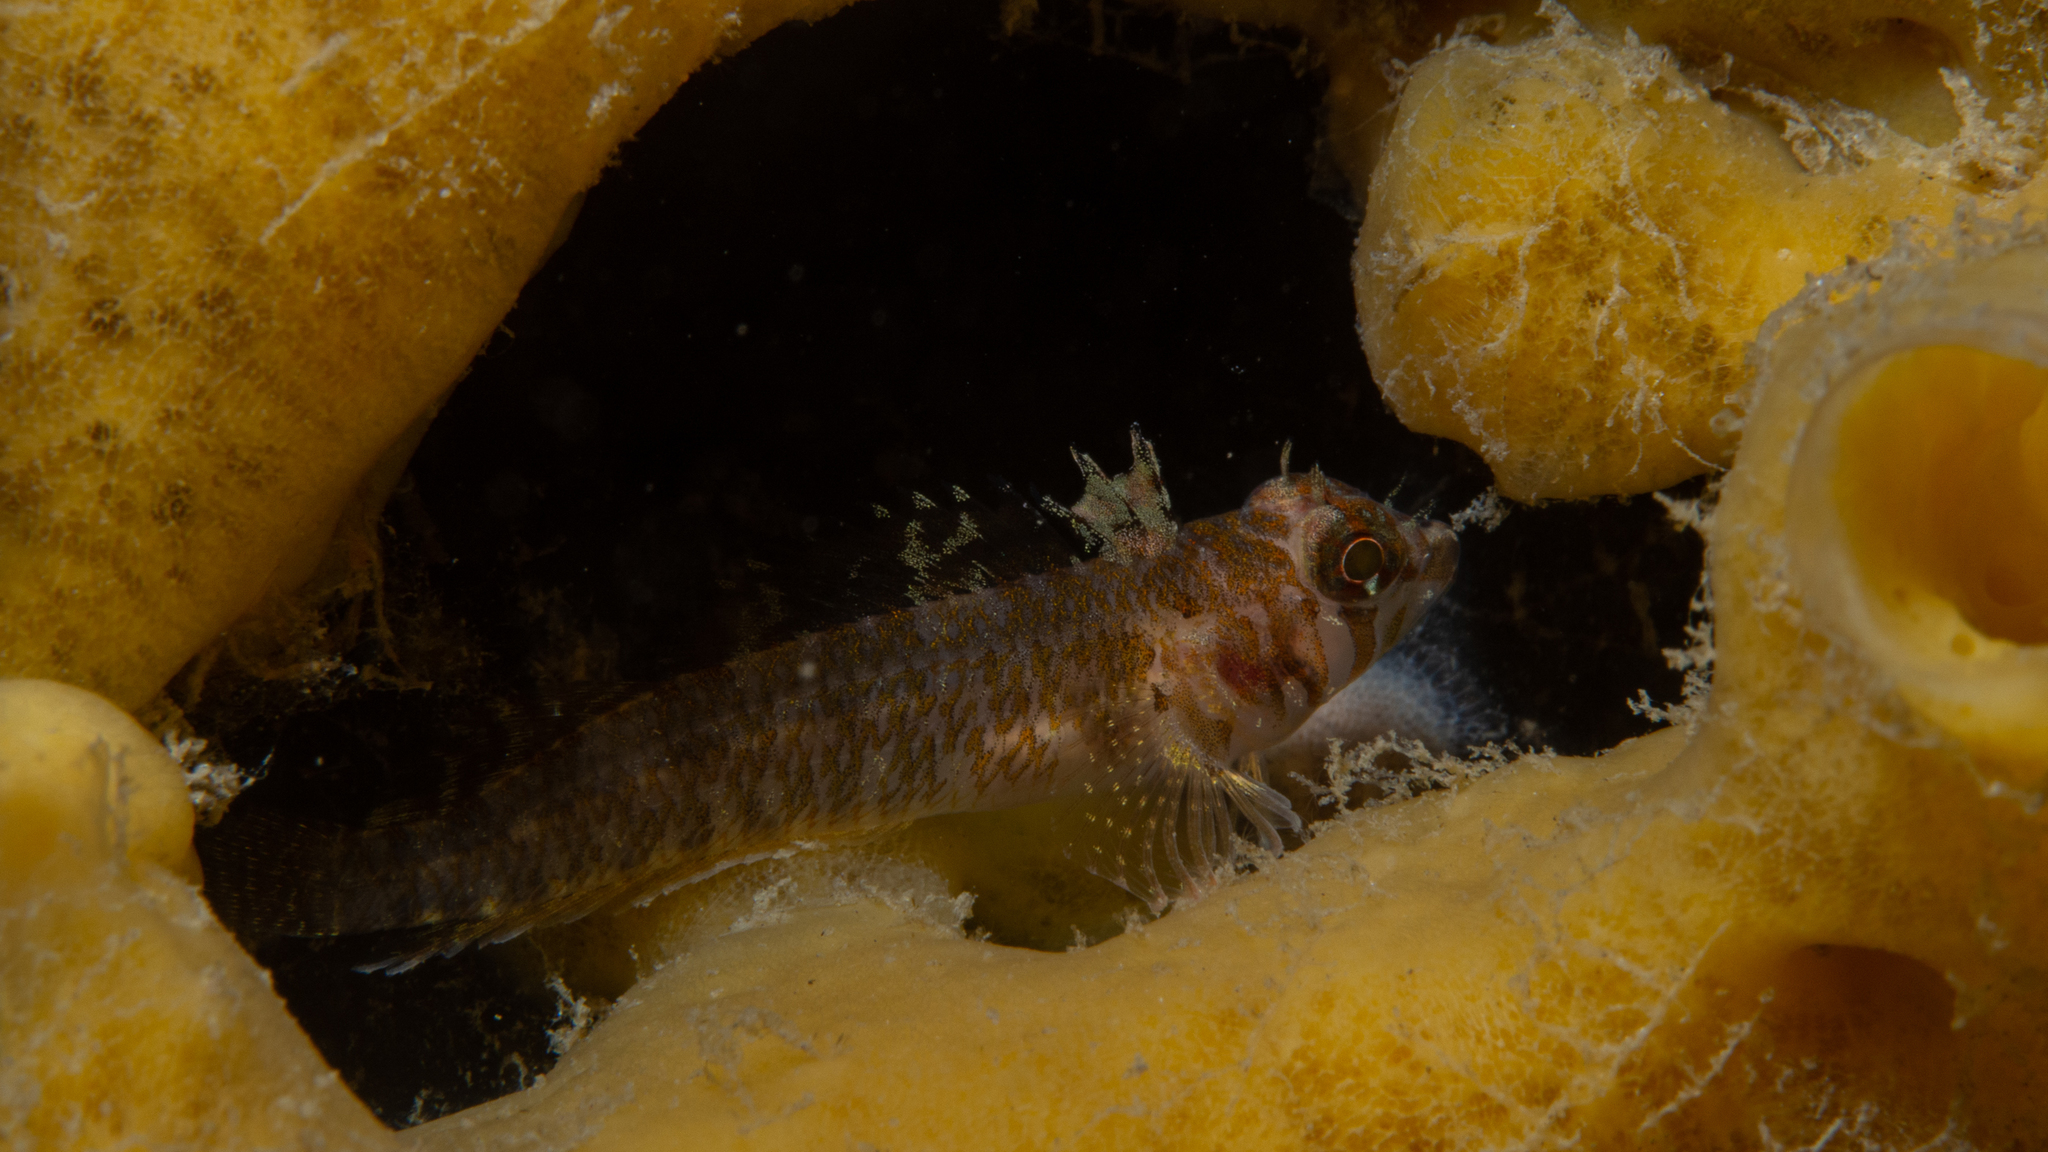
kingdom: Animalia
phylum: Chordata
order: Perciformes
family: Tripterygiidae
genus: Trinorfolkia
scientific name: Trinorfolkia clarkei
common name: Clarke's triplefin
